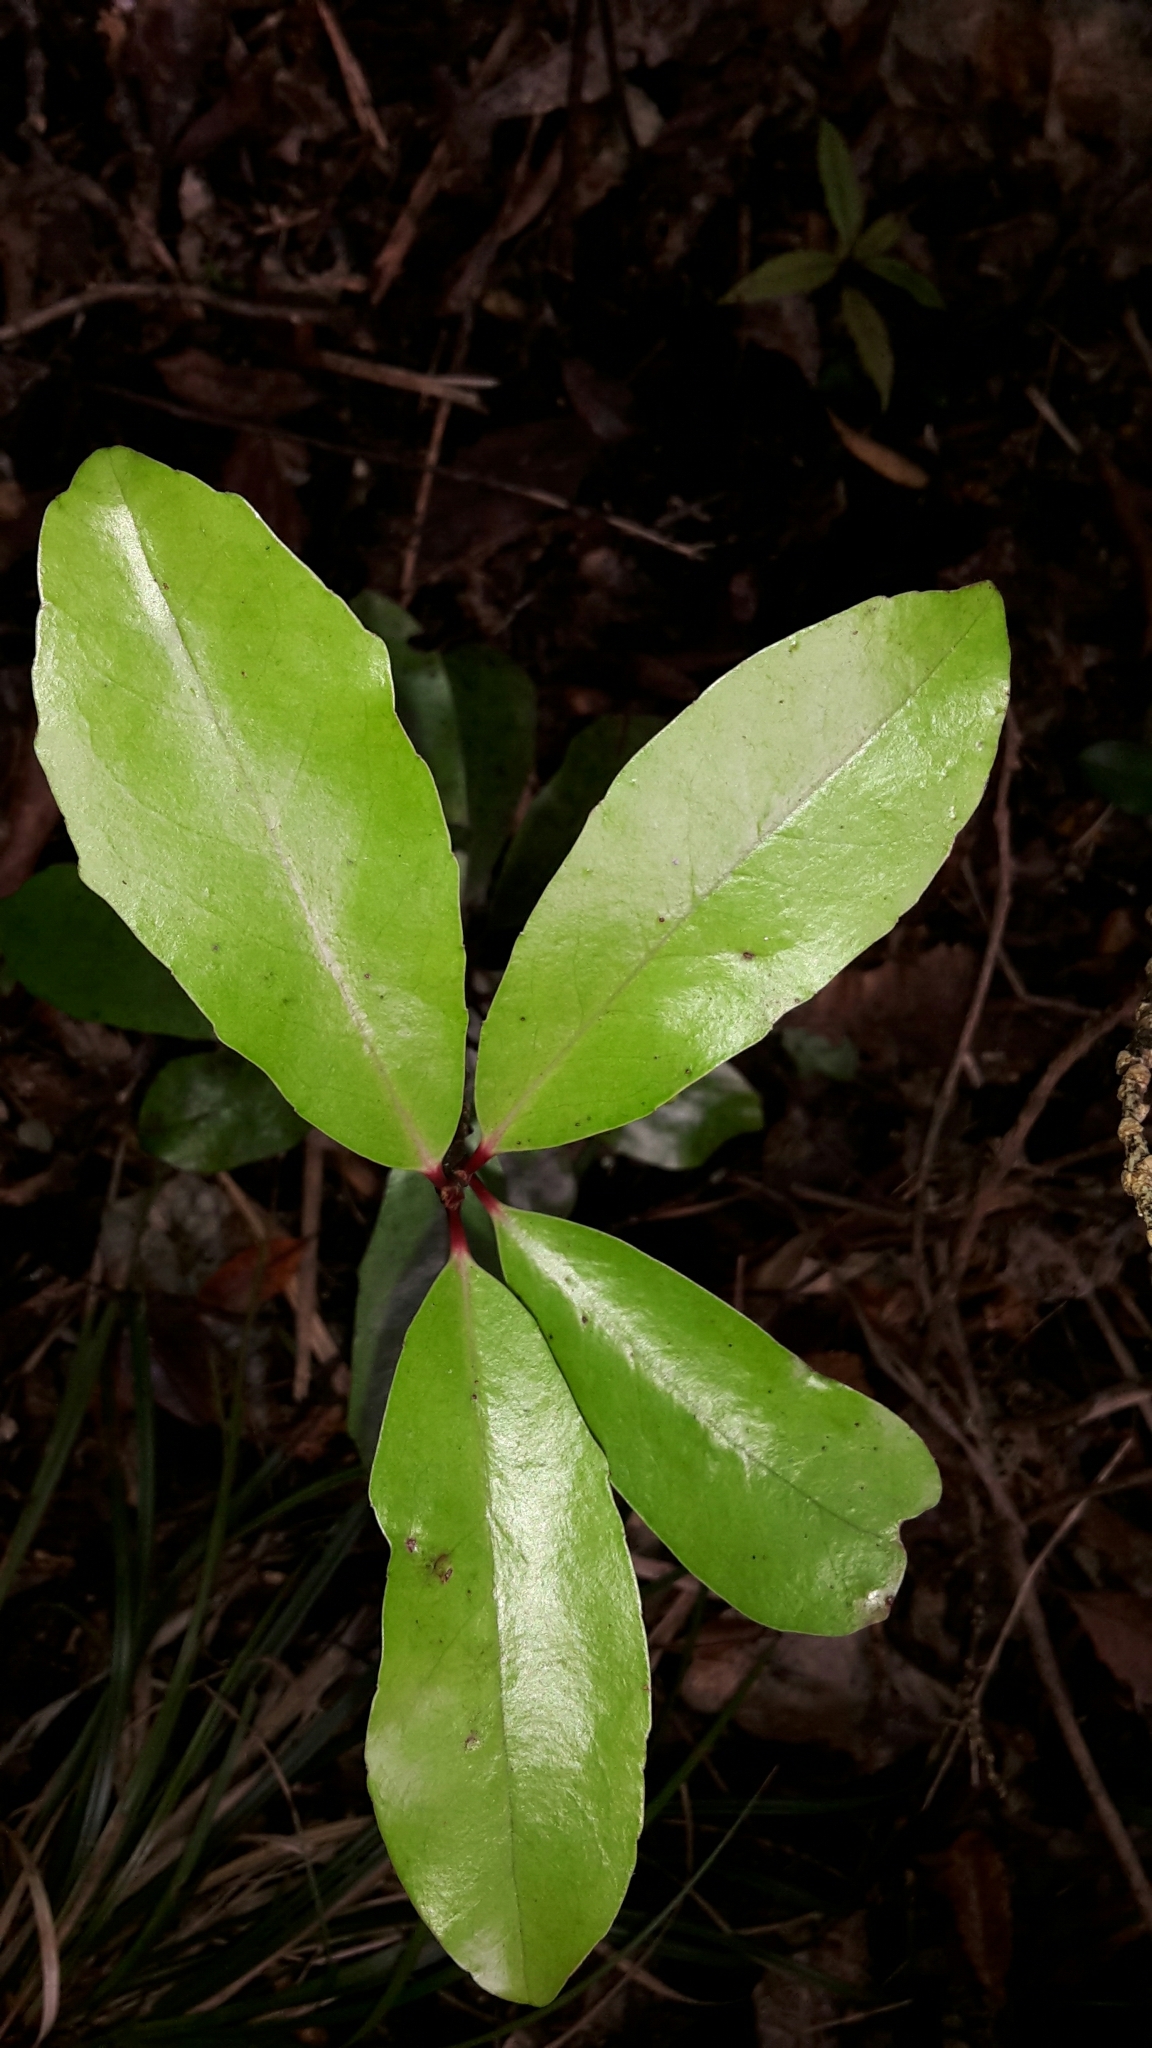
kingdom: Plantae
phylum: Tracheophyta
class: Magnoliopsida
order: Asterales
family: Alseuosmiaceae
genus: Alseuosmia
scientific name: Alseuosmia quercifolia
